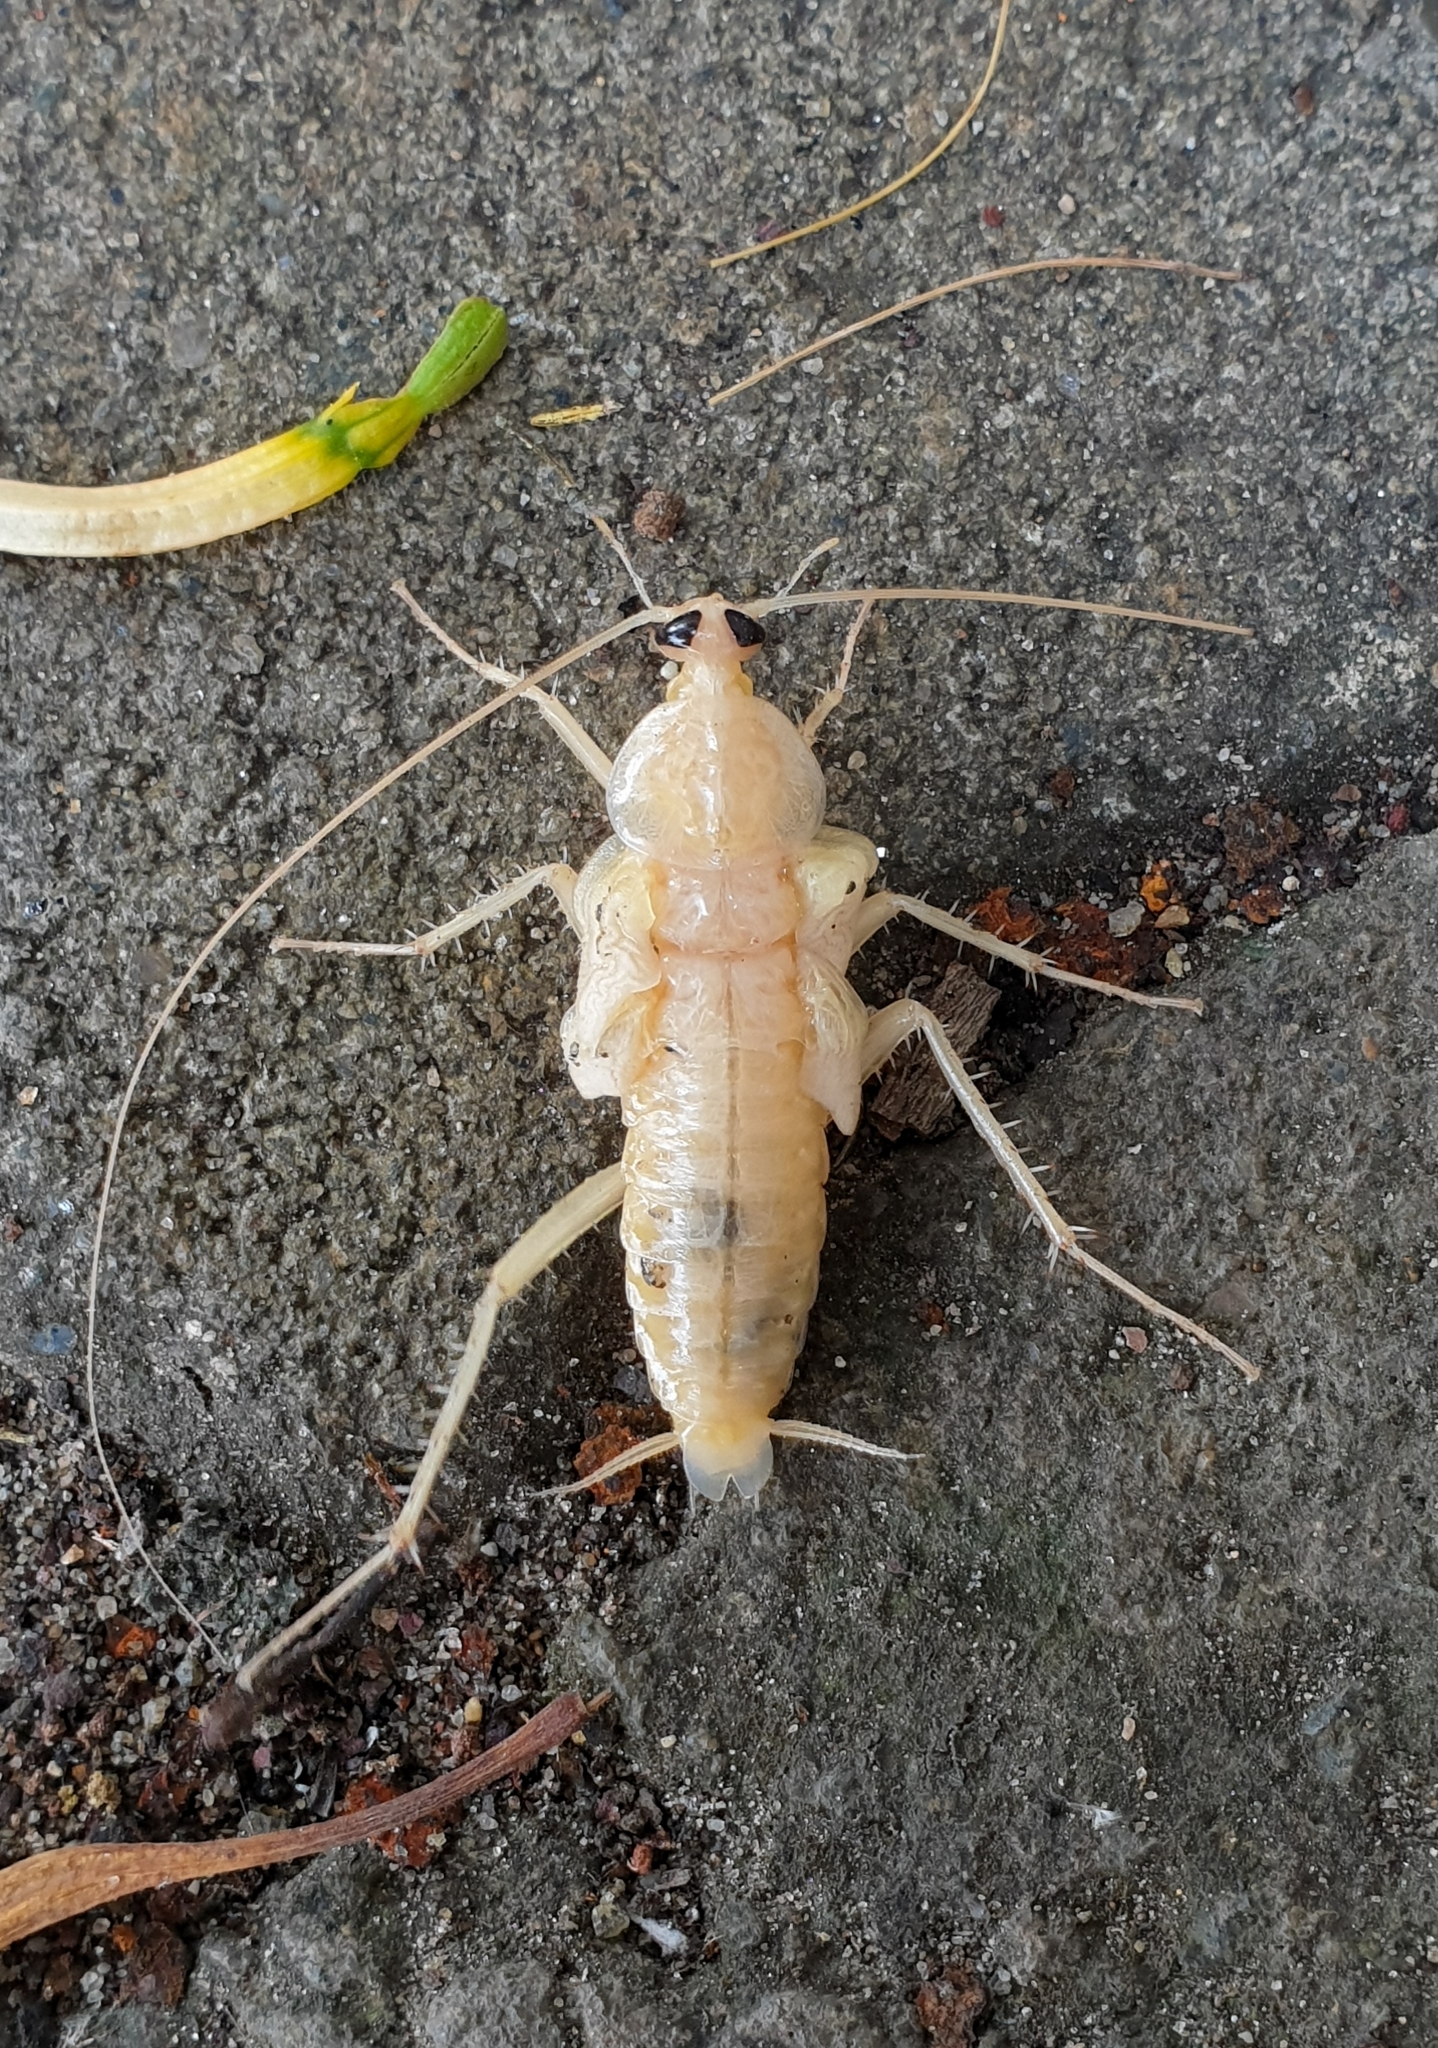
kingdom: Animalia
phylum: Arthropoda
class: Insecta
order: Blattodea
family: Blattidae
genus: Periplaneta
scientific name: Periplaneta americana
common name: American cockroach
